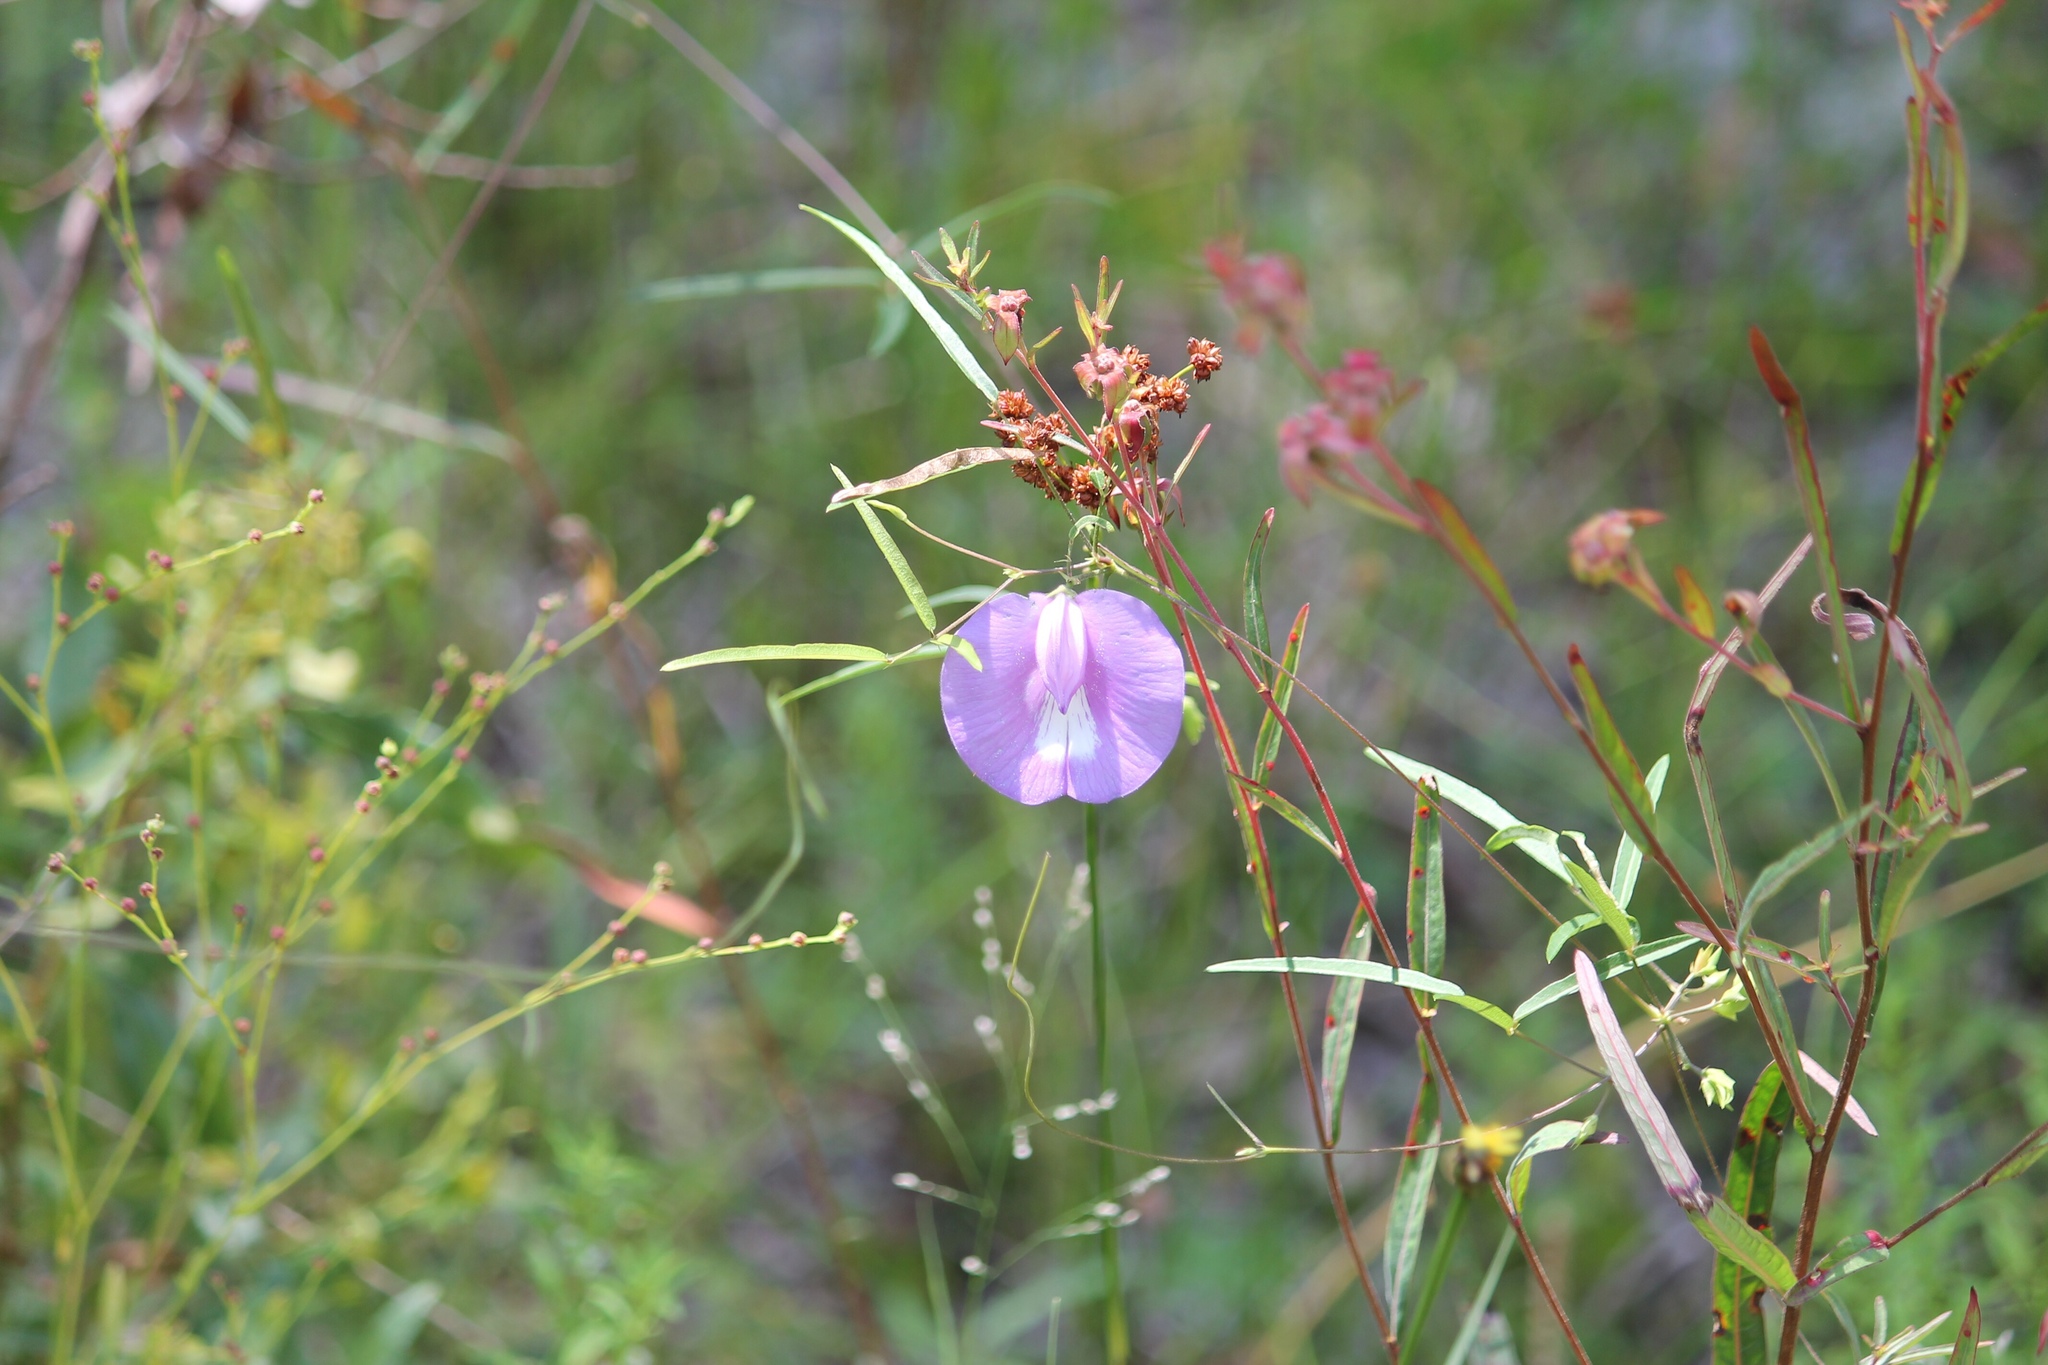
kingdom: Plantae
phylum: Tracheophyta
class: Magnoliopsida
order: Fabales
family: Fabaceae
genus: Centrosema
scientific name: Centrosema virginianum
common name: Butterfly-pea
